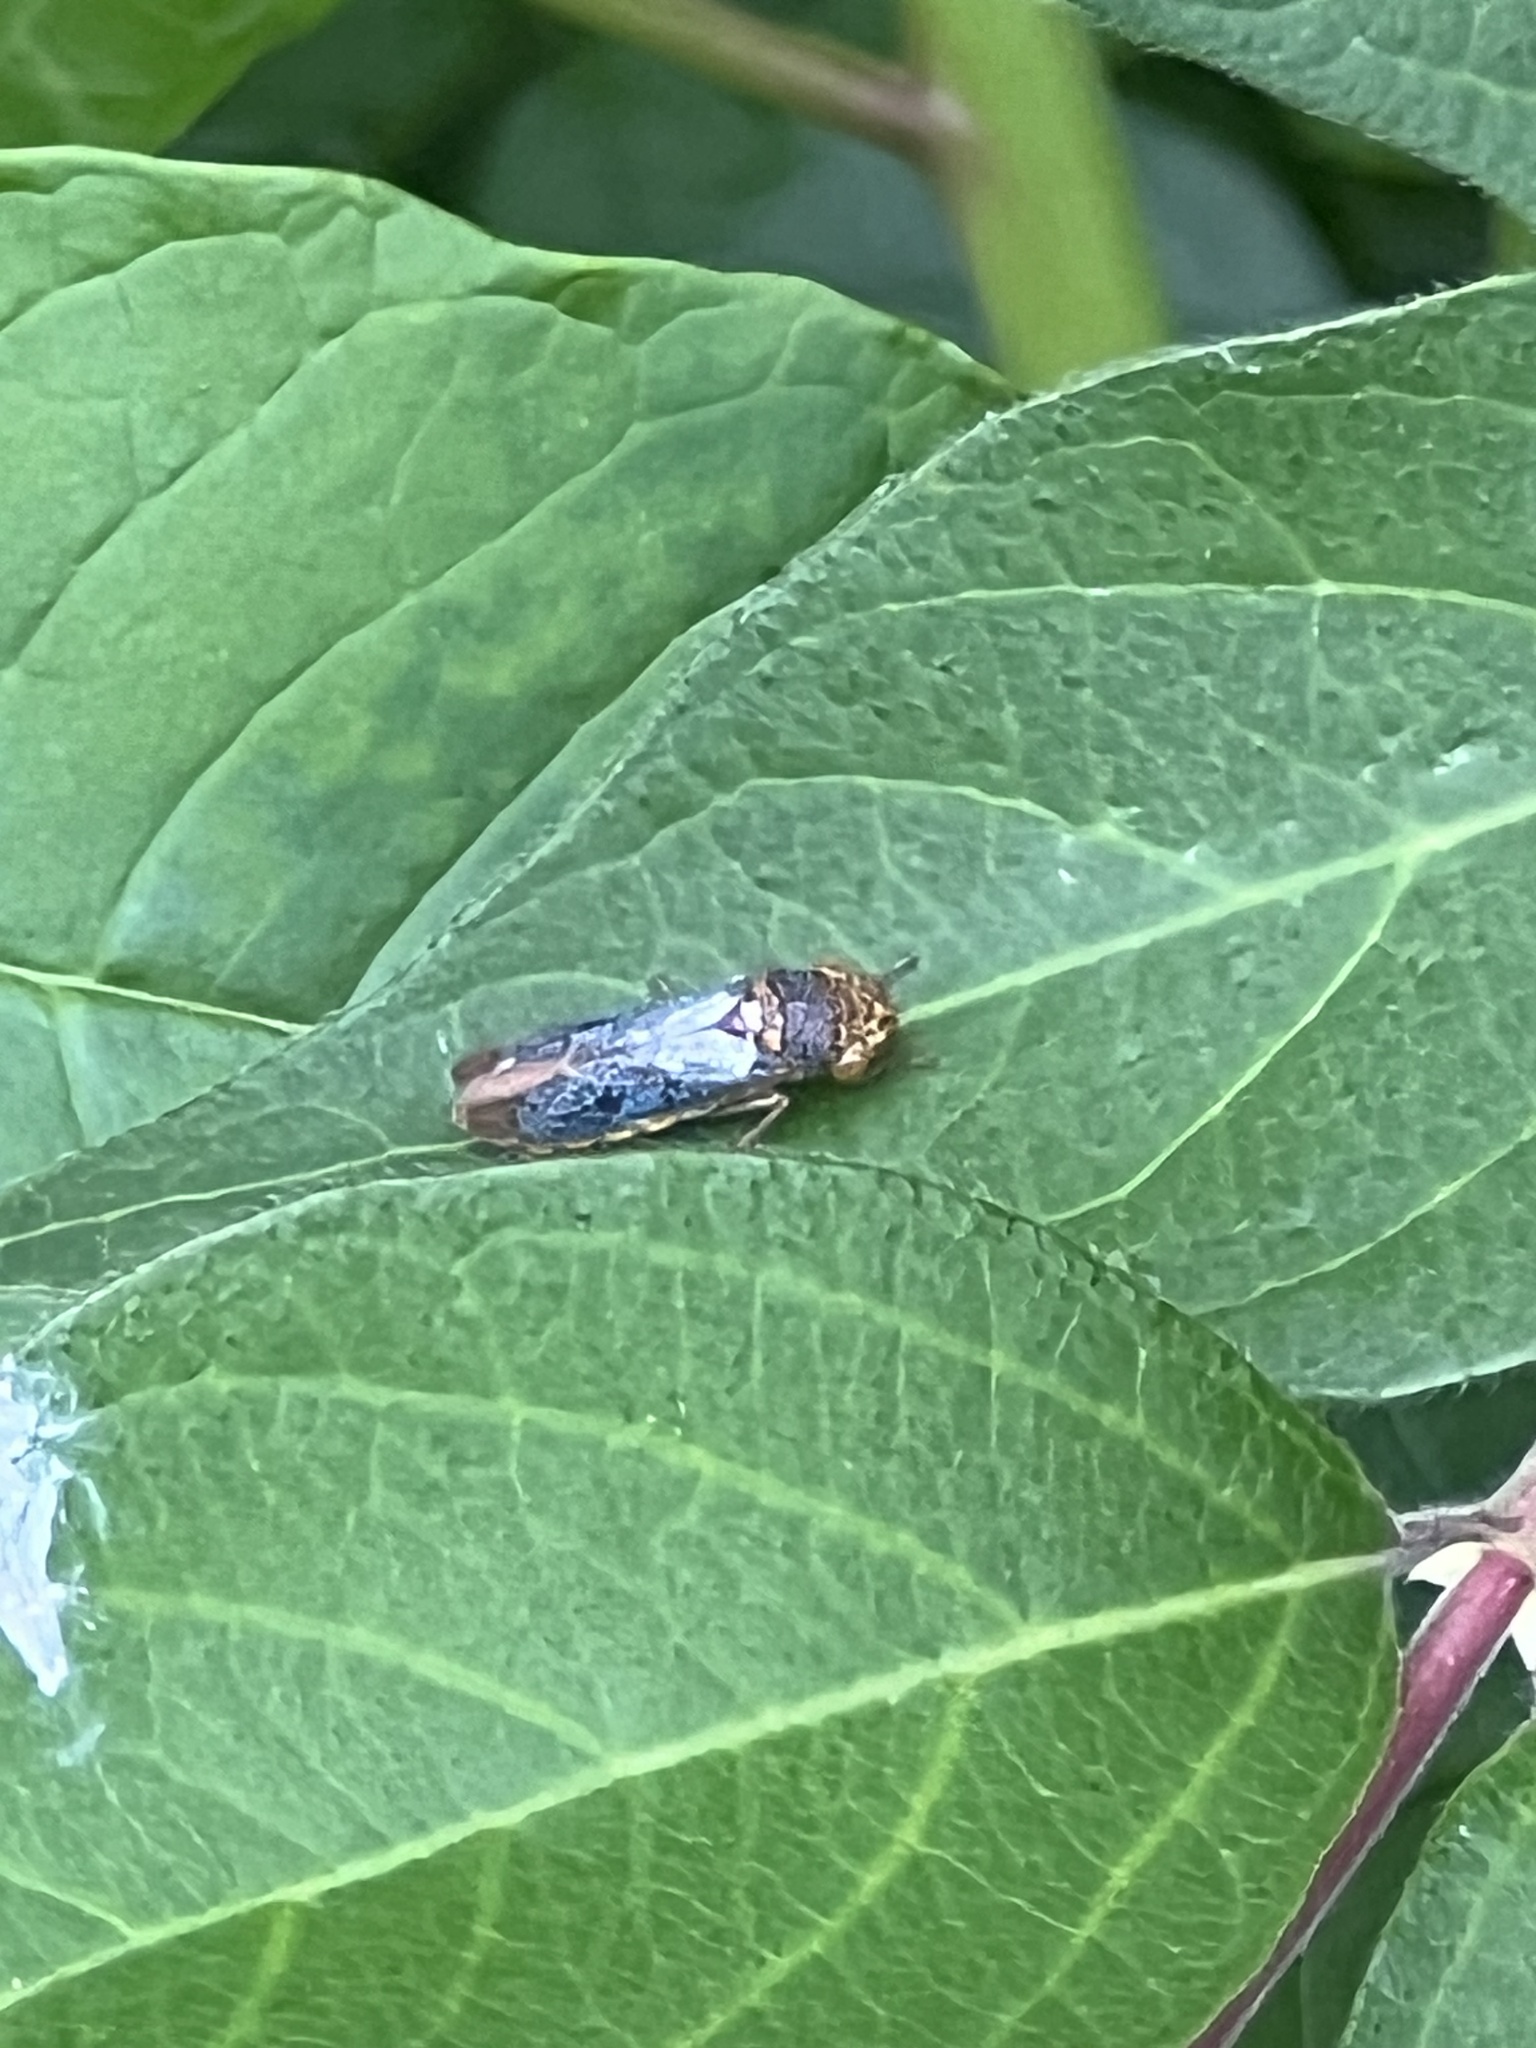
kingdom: Animalia
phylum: Arthropoda
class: Insecta
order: Hemiptera
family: Cicadellidae
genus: Oncometopia
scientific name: Oncometopia orbona
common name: Broad-headed sharpshooter
